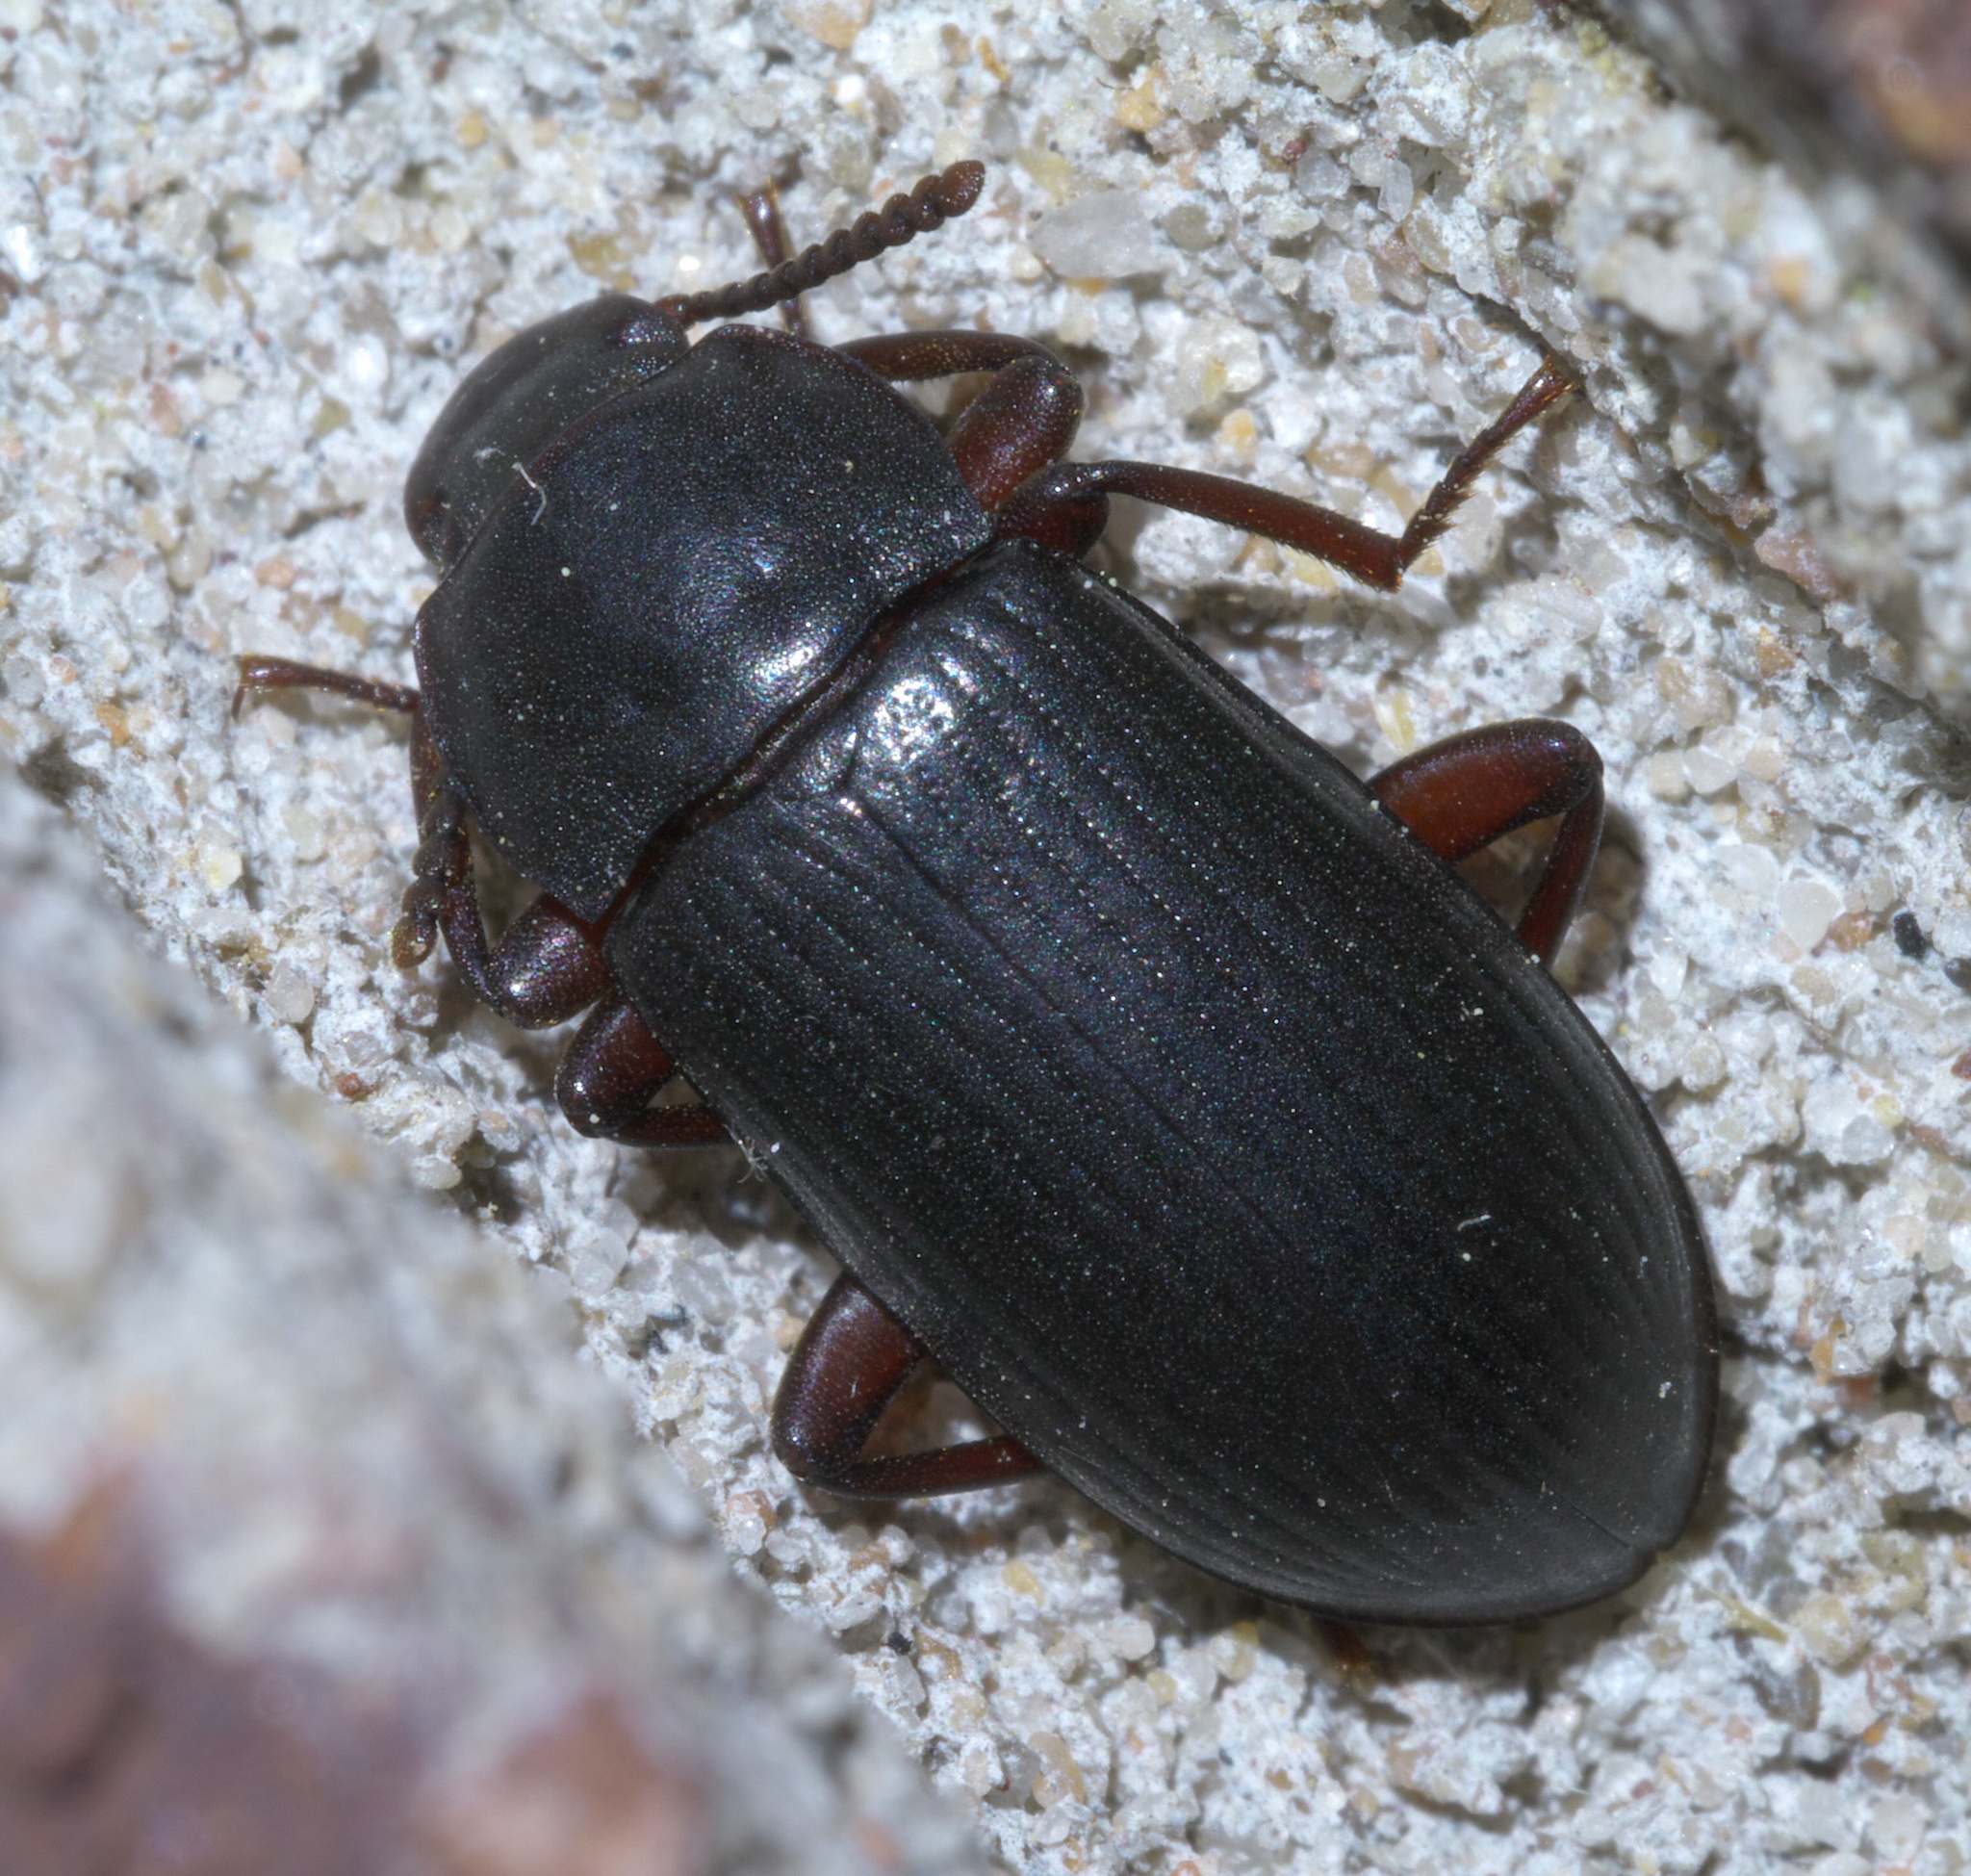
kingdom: Animalia
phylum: Arthropoda
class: Insecta
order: Coleoptera
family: Tenebrionidae
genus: Neatus
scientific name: Neatus tenebrioides
